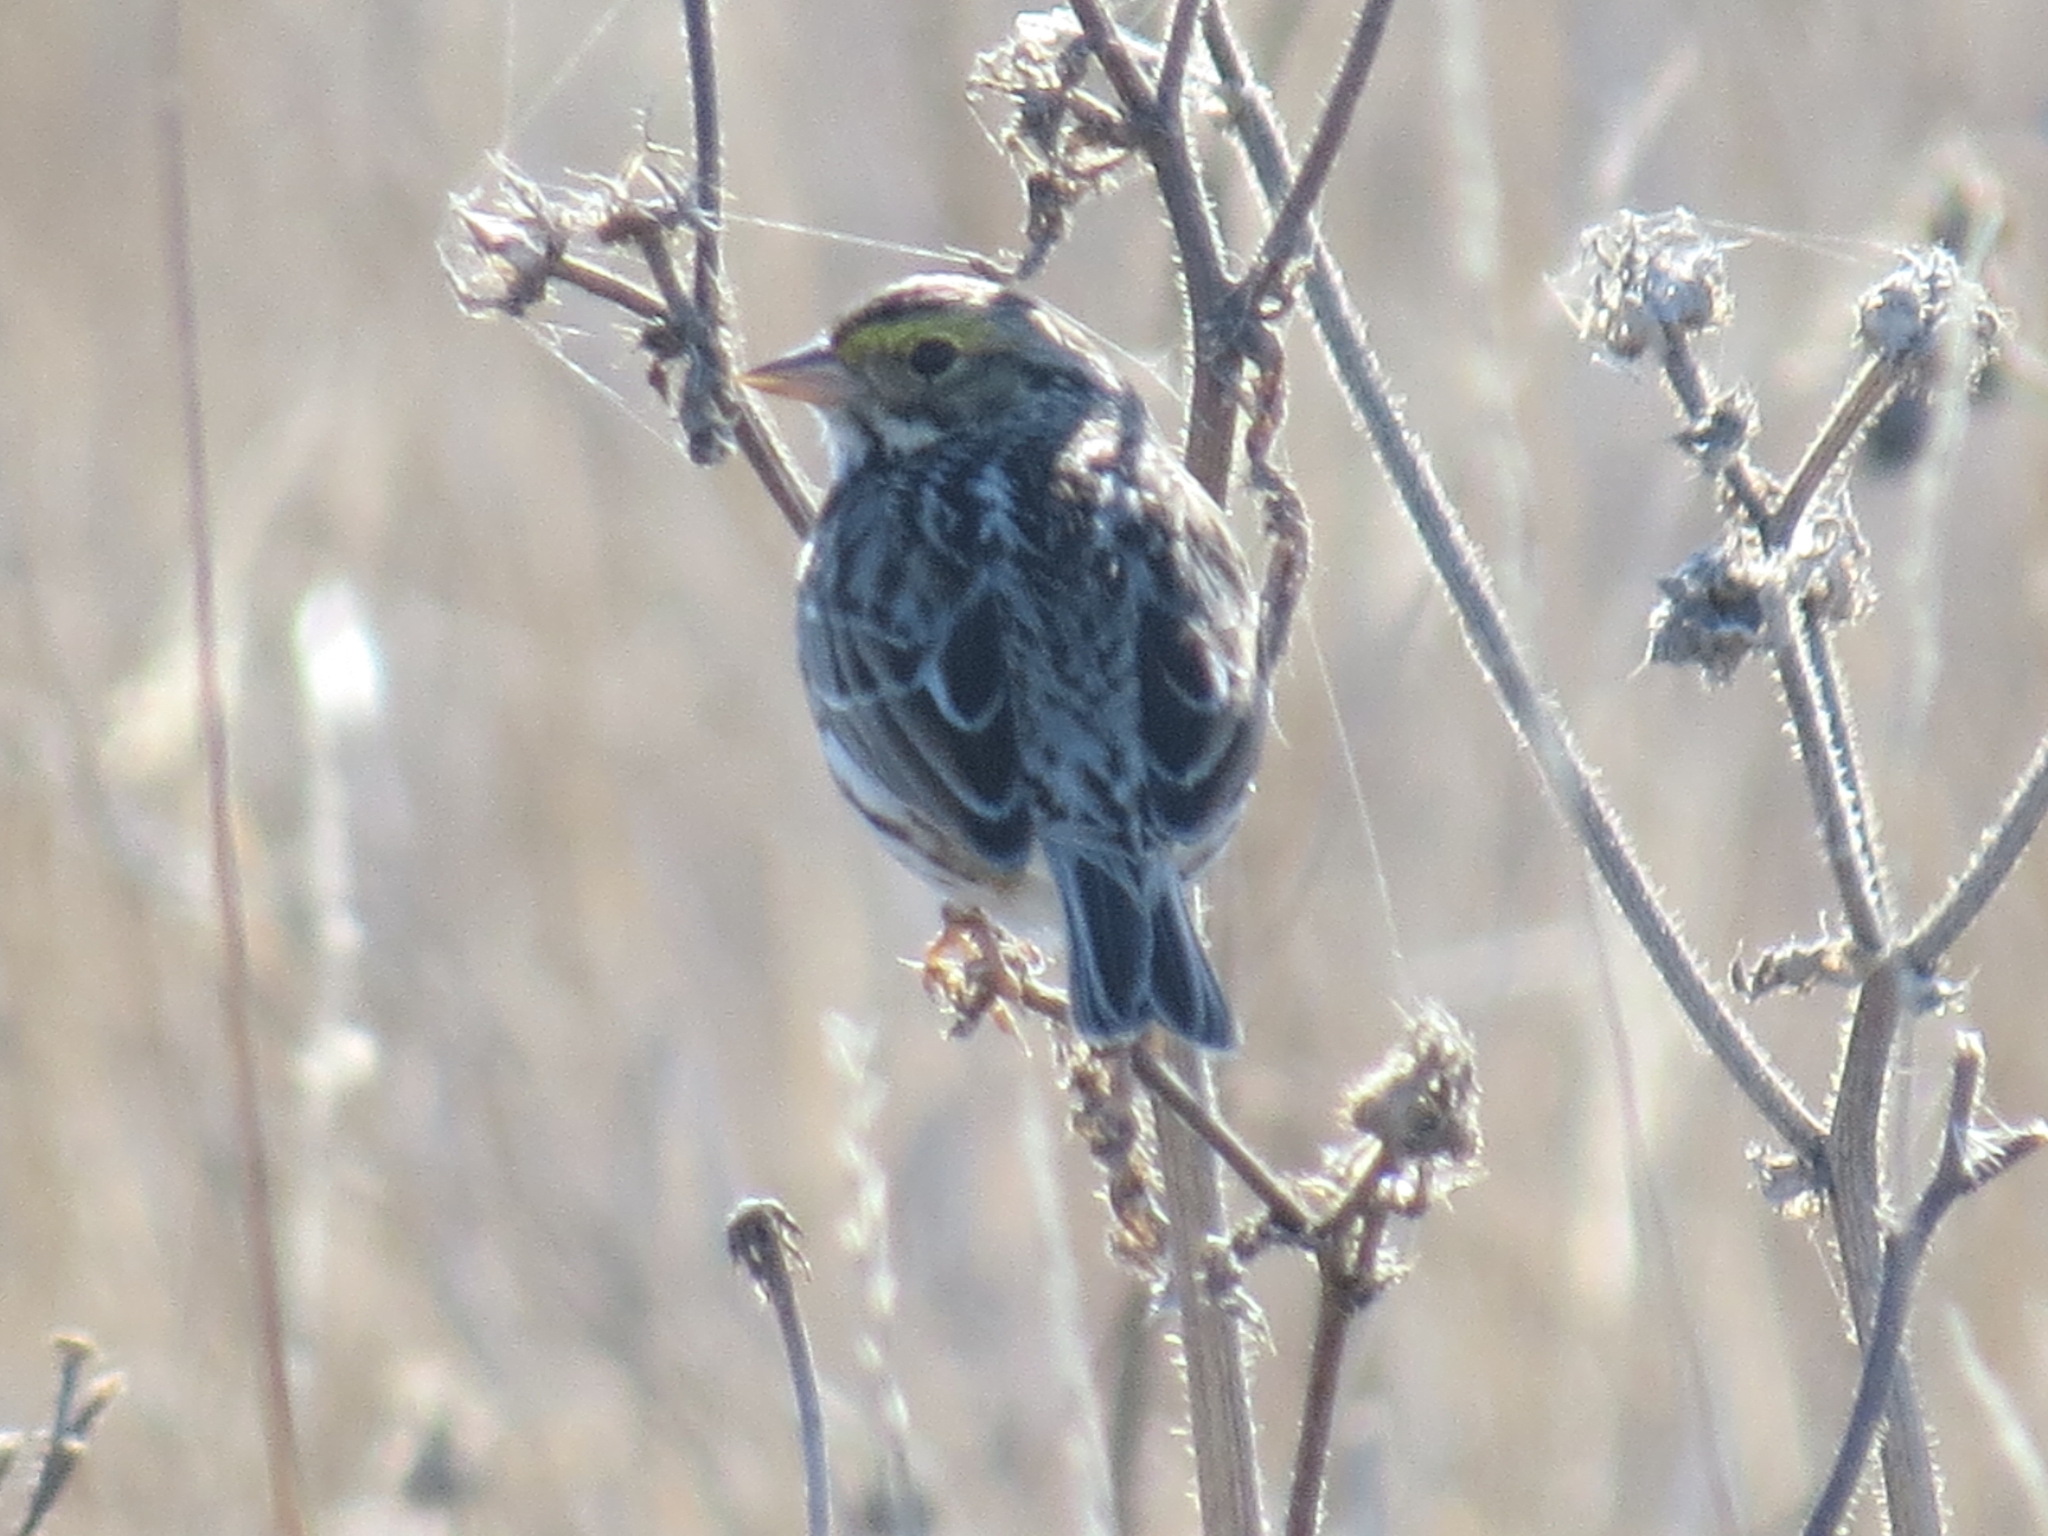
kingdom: Animalia
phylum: Chordata
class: Aves
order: Passeriformes
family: Passerellidae
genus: Passerculus
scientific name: Passerculus sandwichensis
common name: Savannah sparrow
